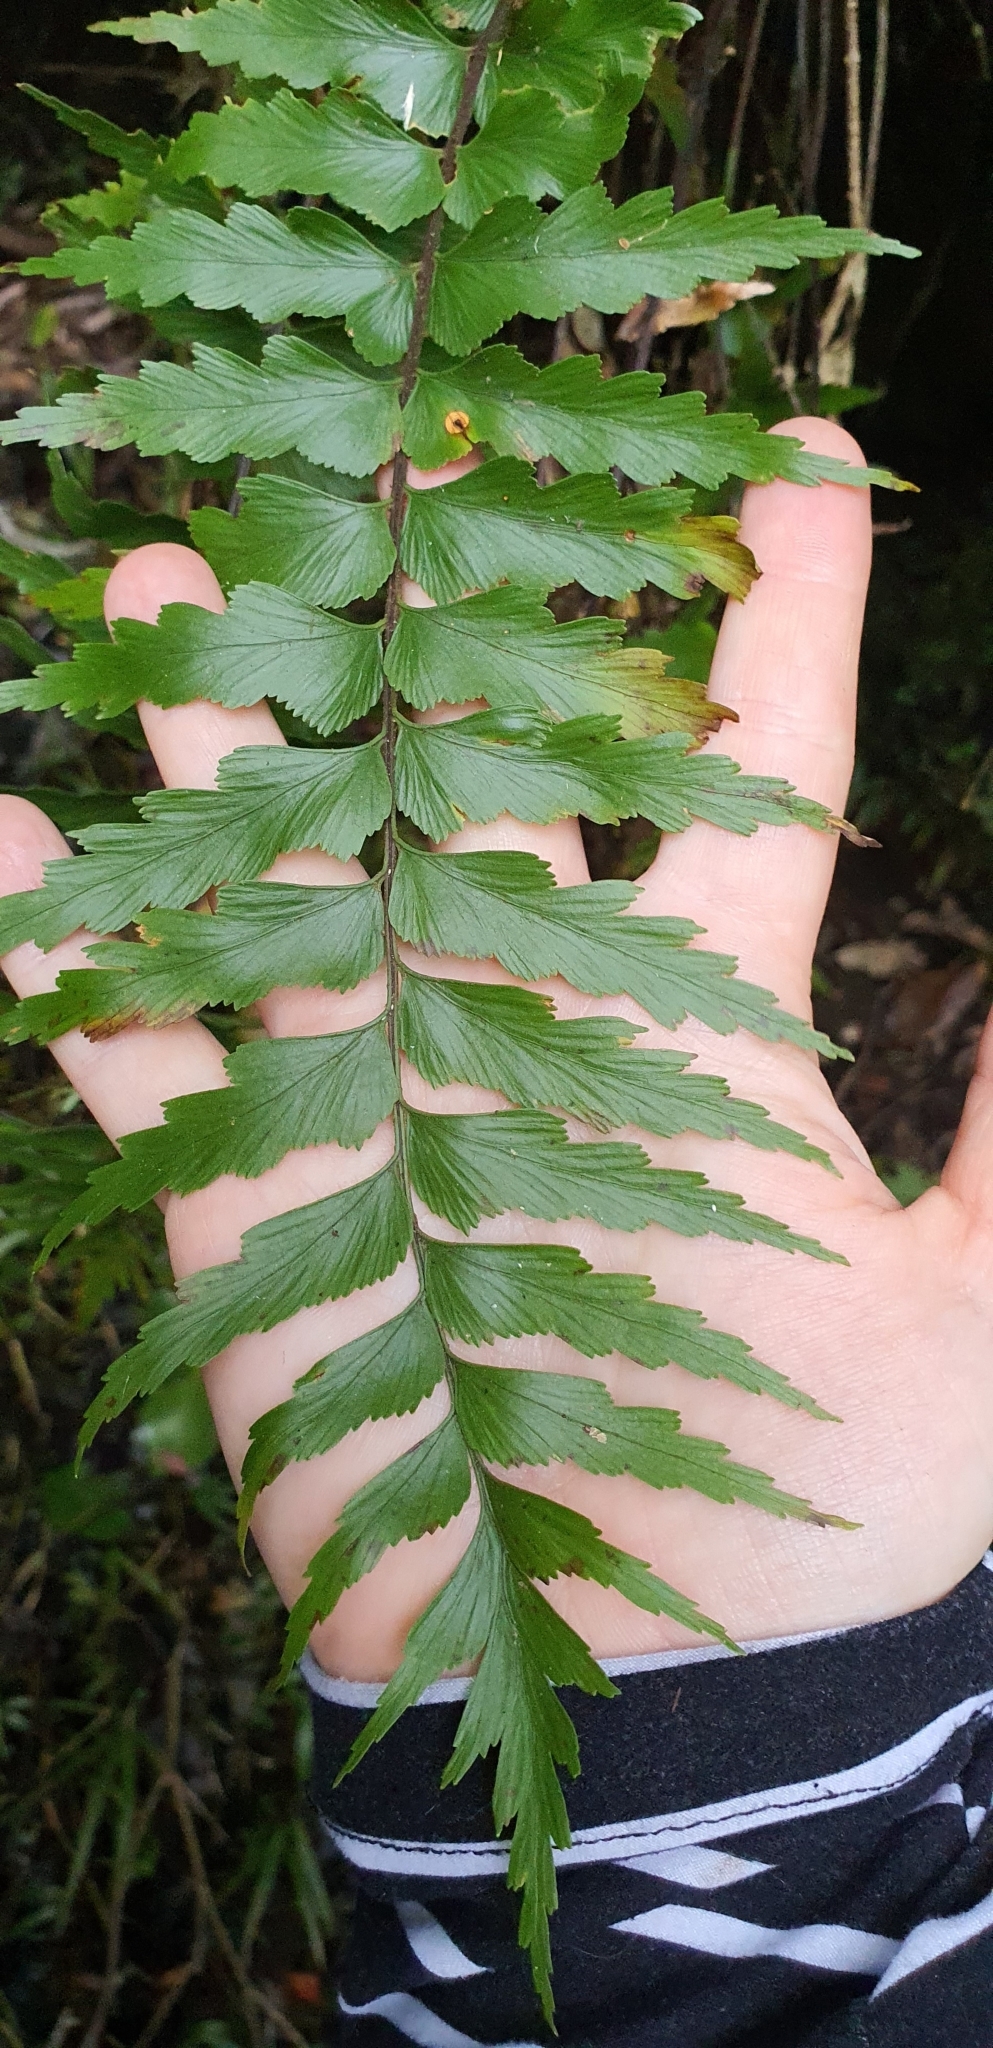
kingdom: Plantae
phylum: Tracheophyta
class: Polypodiopsida
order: Polypodiales
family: Aspleniaceae
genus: Asplenium
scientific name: Asplenium polyodon
